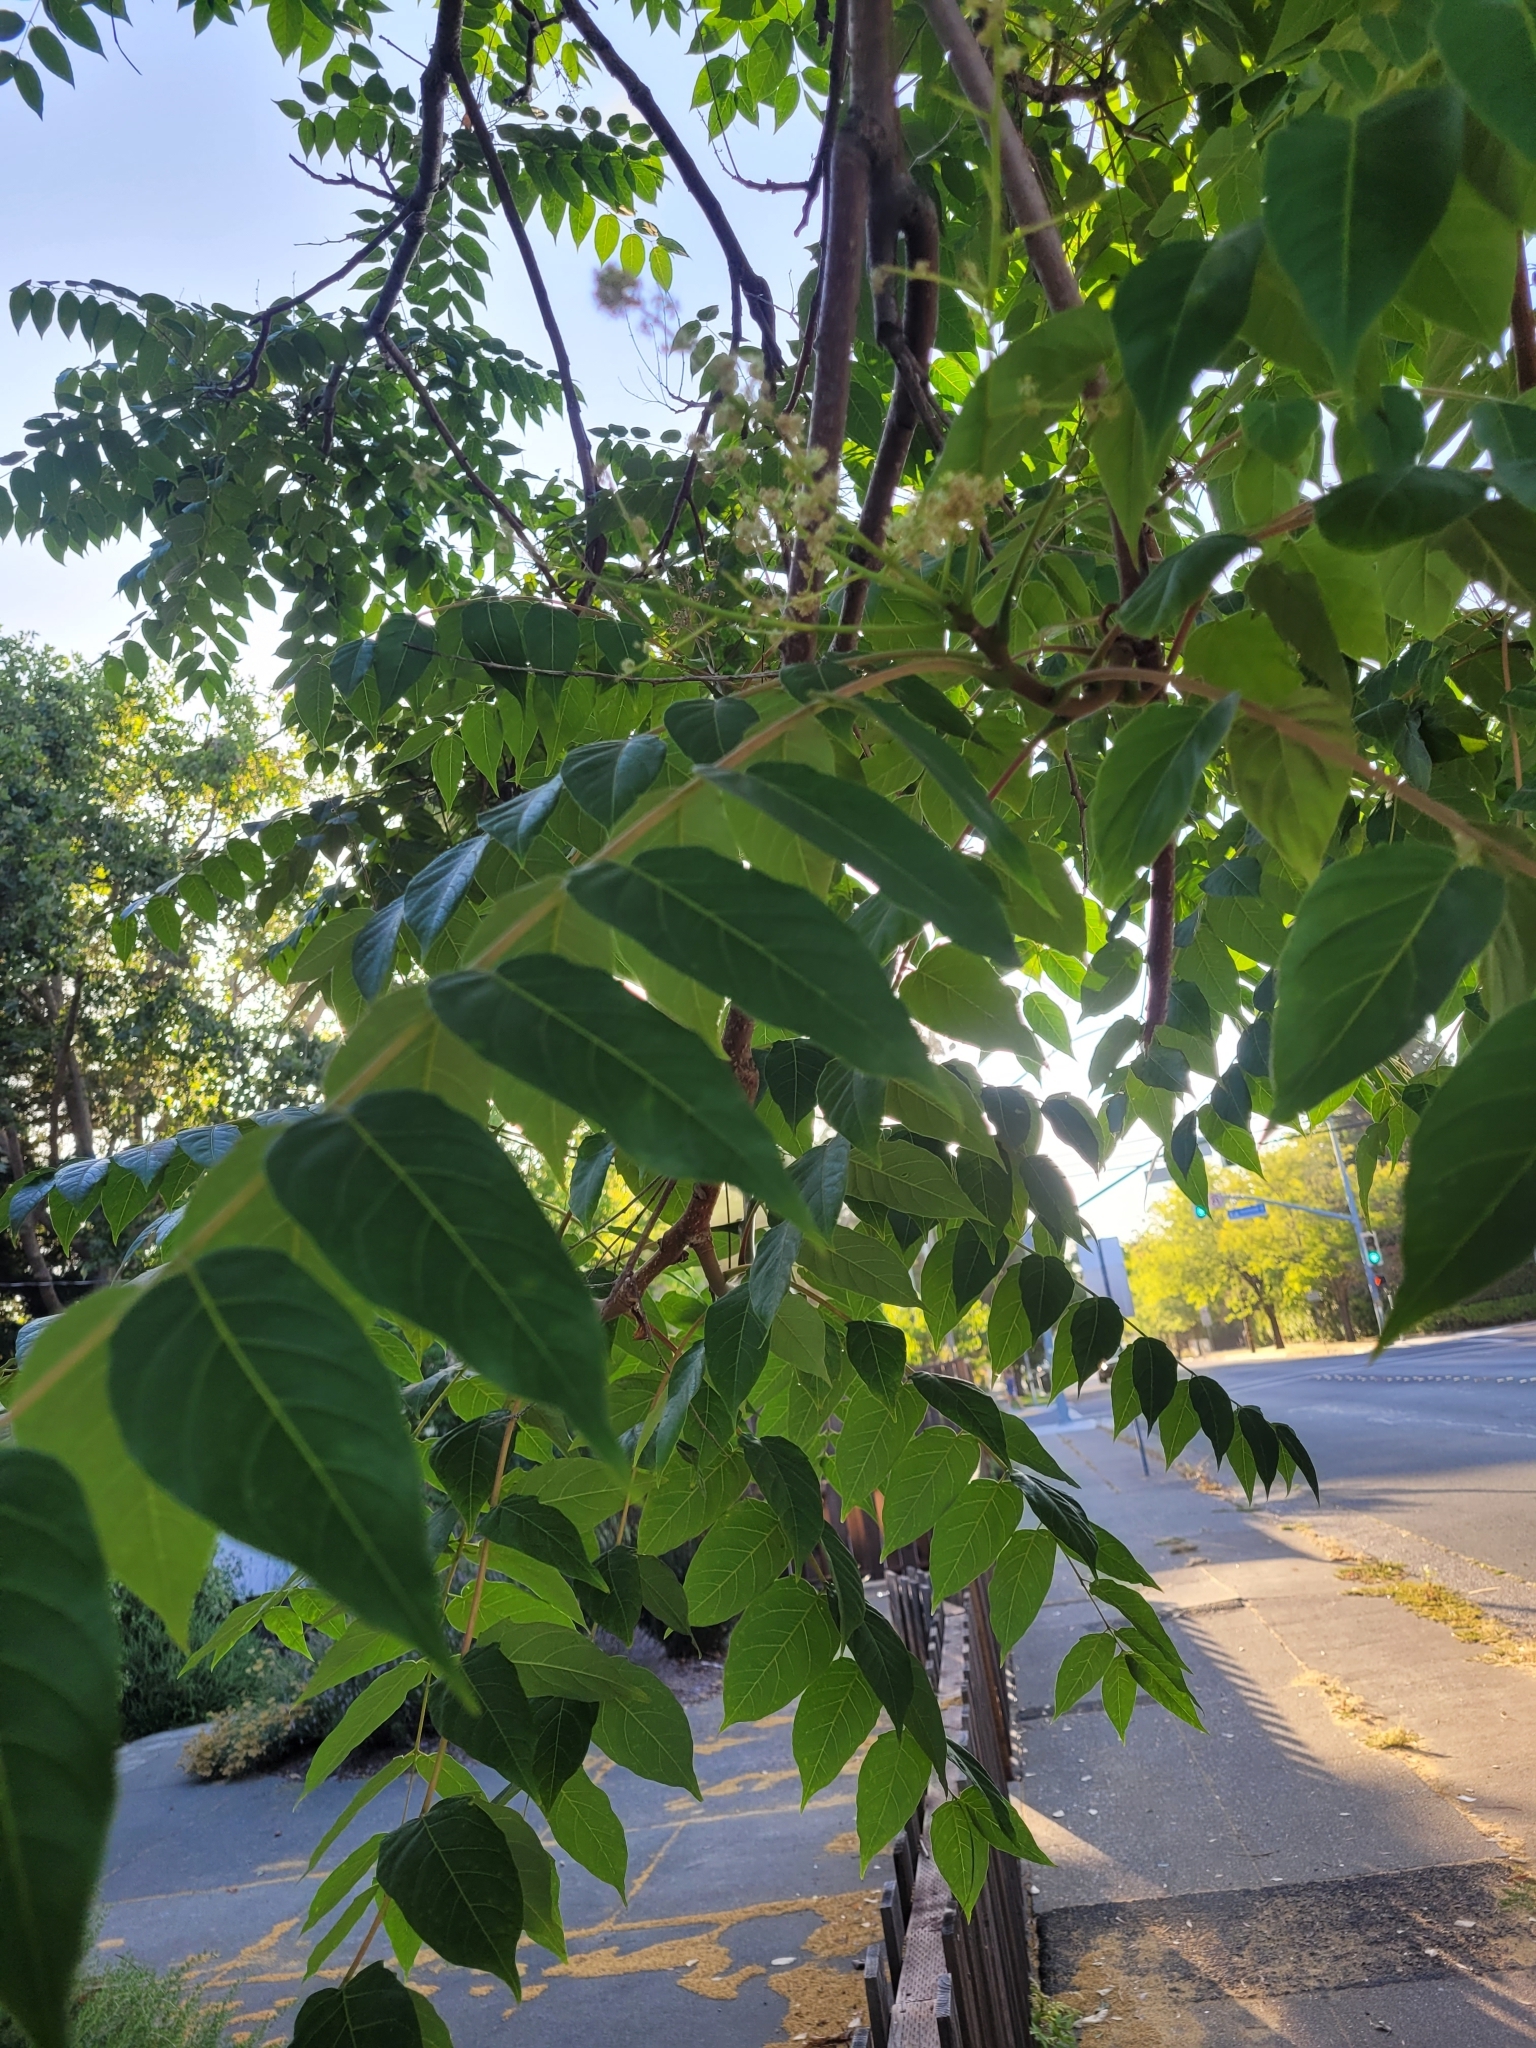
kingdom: Plantae
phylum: Tracheophyta
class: Magnoliopsida
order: Sapindales
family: Simaroubaceae
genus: Ailanthus
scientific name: Ailanthus altissima
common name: Tree-of-heaven
